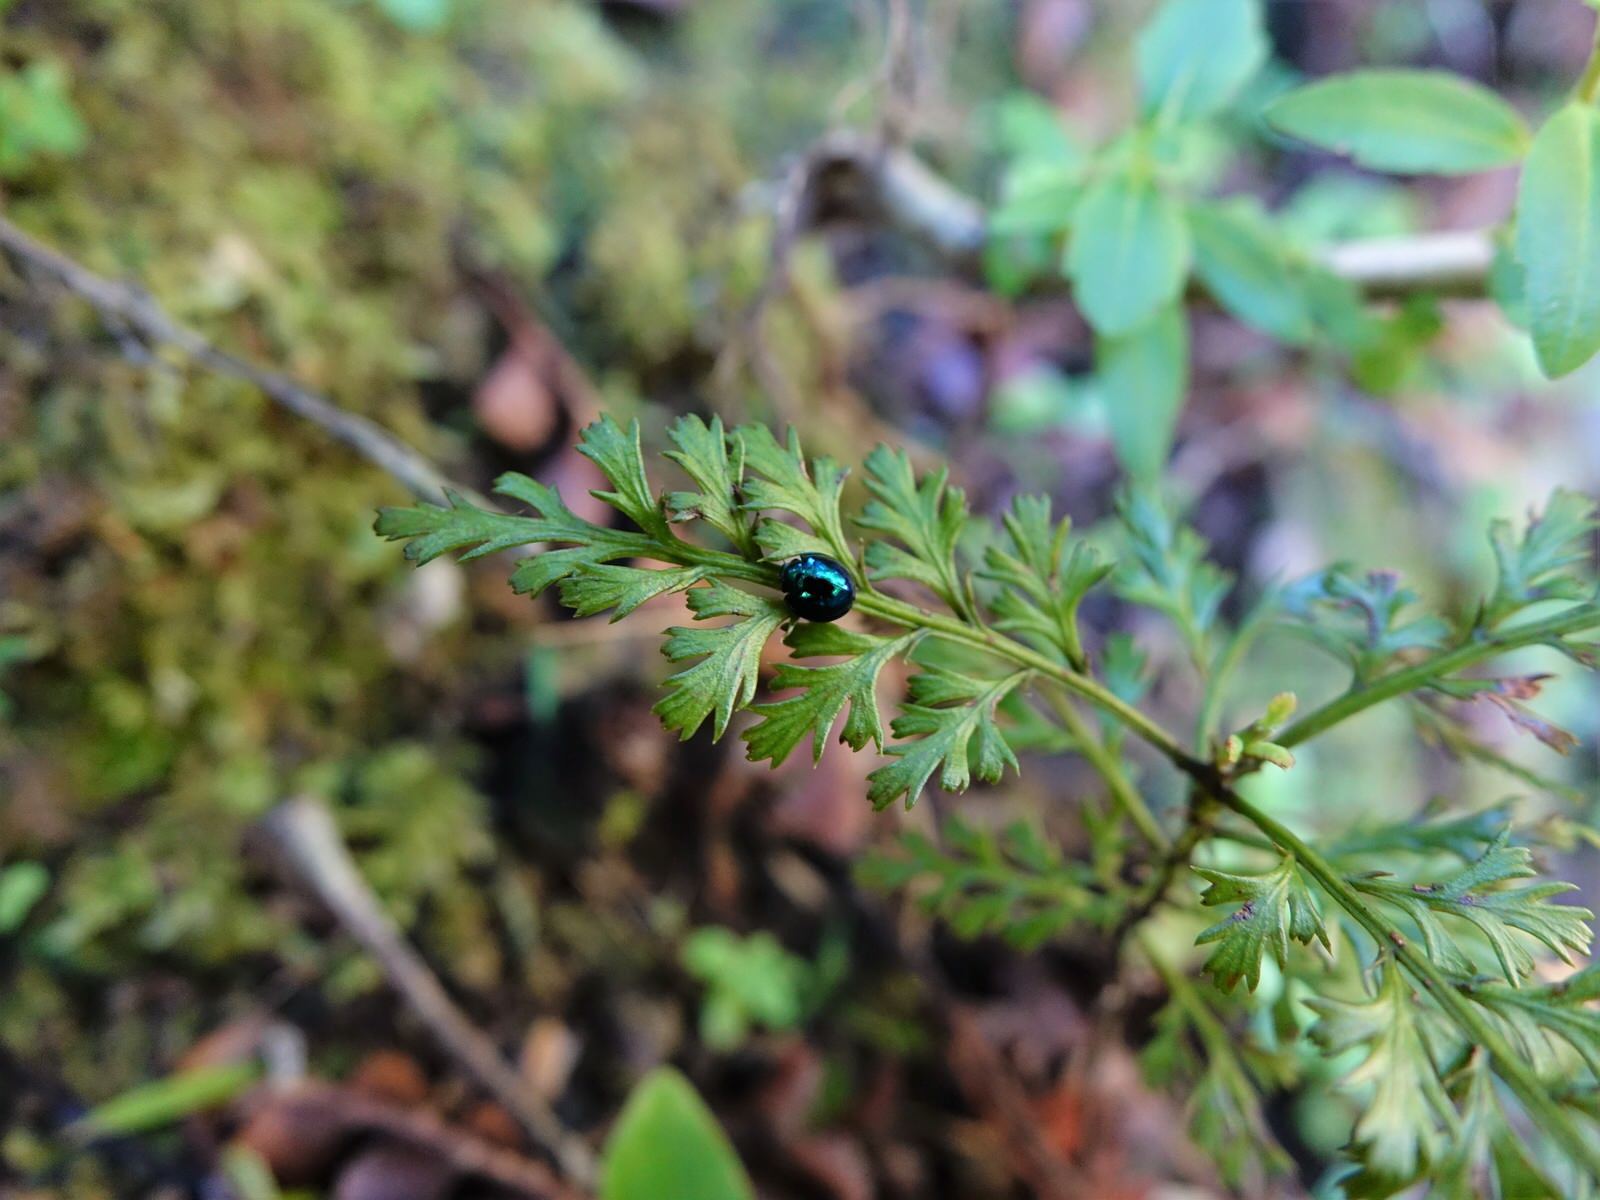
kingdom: Animalia
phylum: Arthropoda
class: Insecta
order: Coleoptera
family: Coccinellidae
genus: Halmus
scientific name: Halmus chalybeus
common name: Steel blue ladybird beetle
